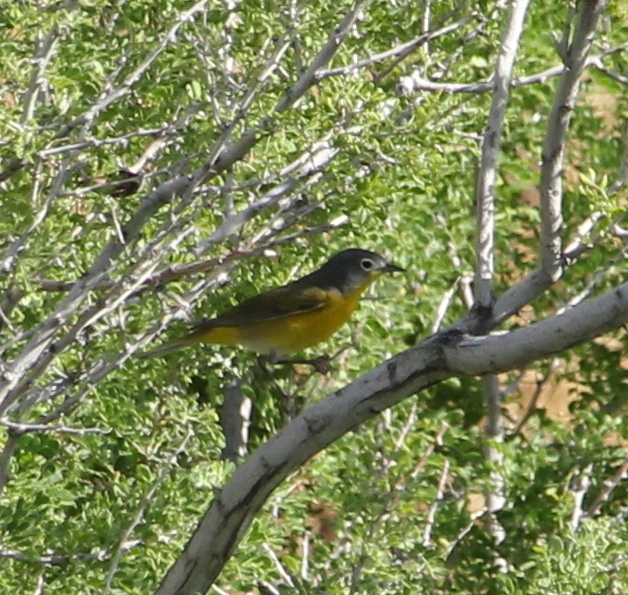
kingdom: Animalia
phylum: Chordata
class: Aves
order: Passeriformes
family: Parulidae
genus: Leiothlypis
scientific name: Leiothlypis ruficapilla
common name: Nashville warbler
